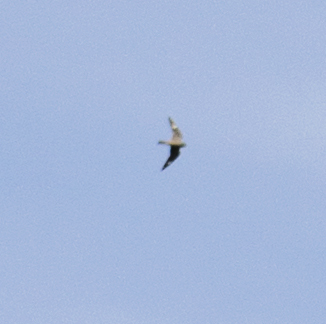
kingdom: Animalia
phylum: Chordata
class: Aves
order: Caprimulgiformes
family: Caprimulgidae
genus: Chordeiles
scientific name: Chordeiles minor
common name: Common nighthawk
